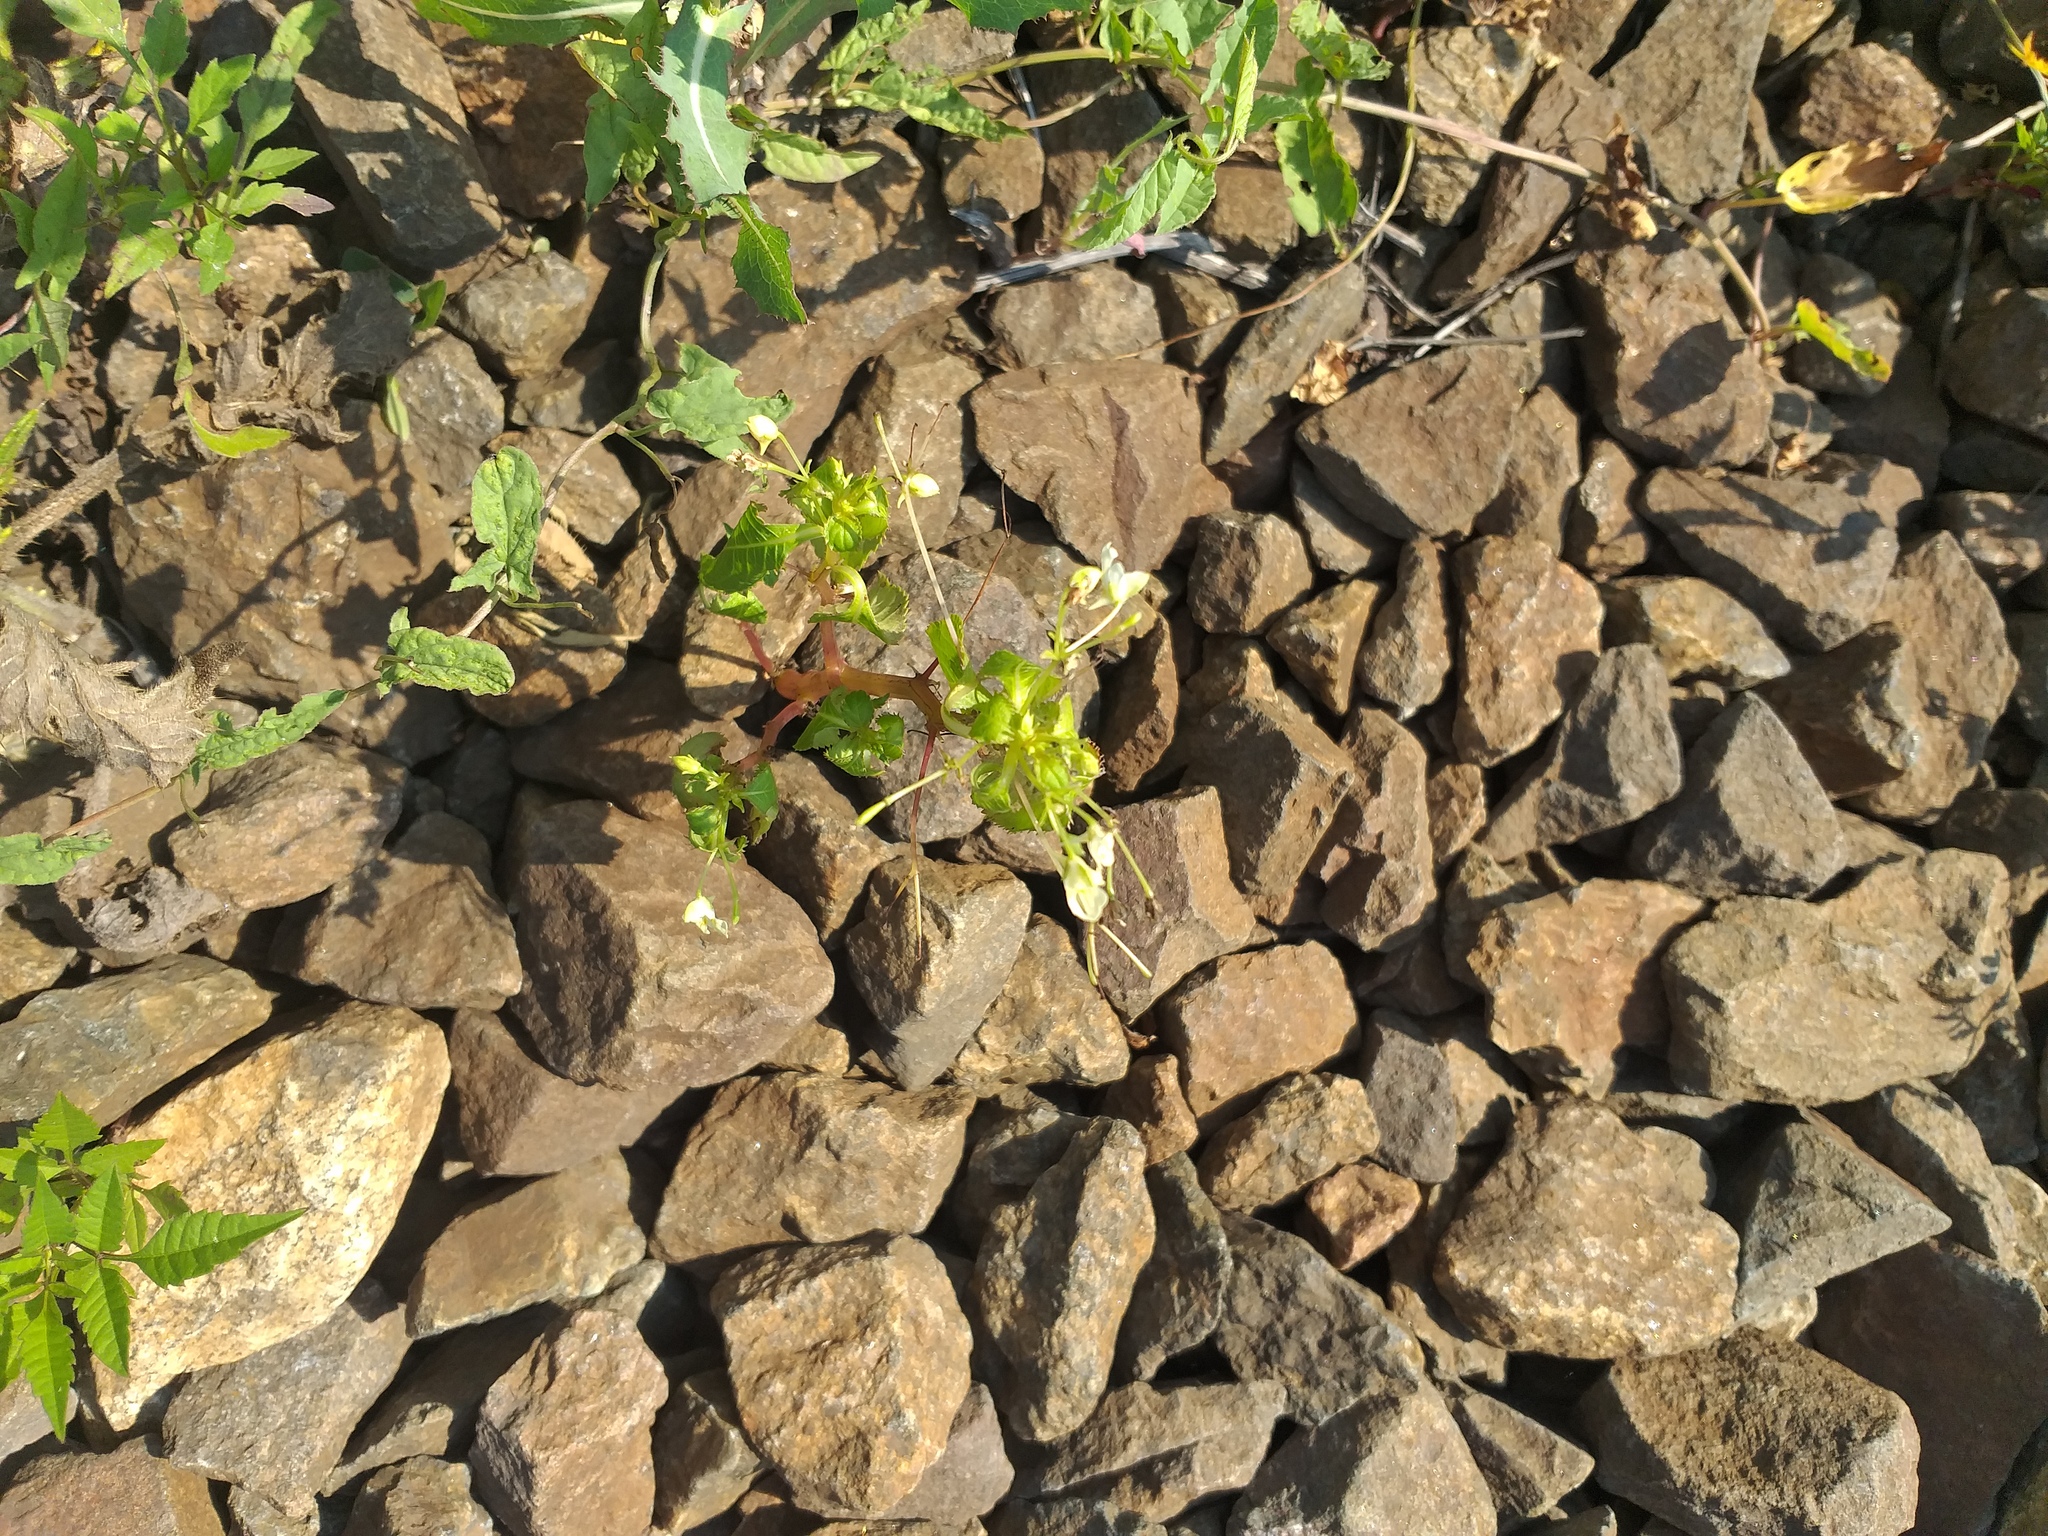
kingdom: Plantae
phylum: Tracheophyta
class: Magnoliopsida
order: Ericales
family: Balsaminaceae
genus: Impatiens
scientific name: Impatiens parviflora
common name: Small balsam
